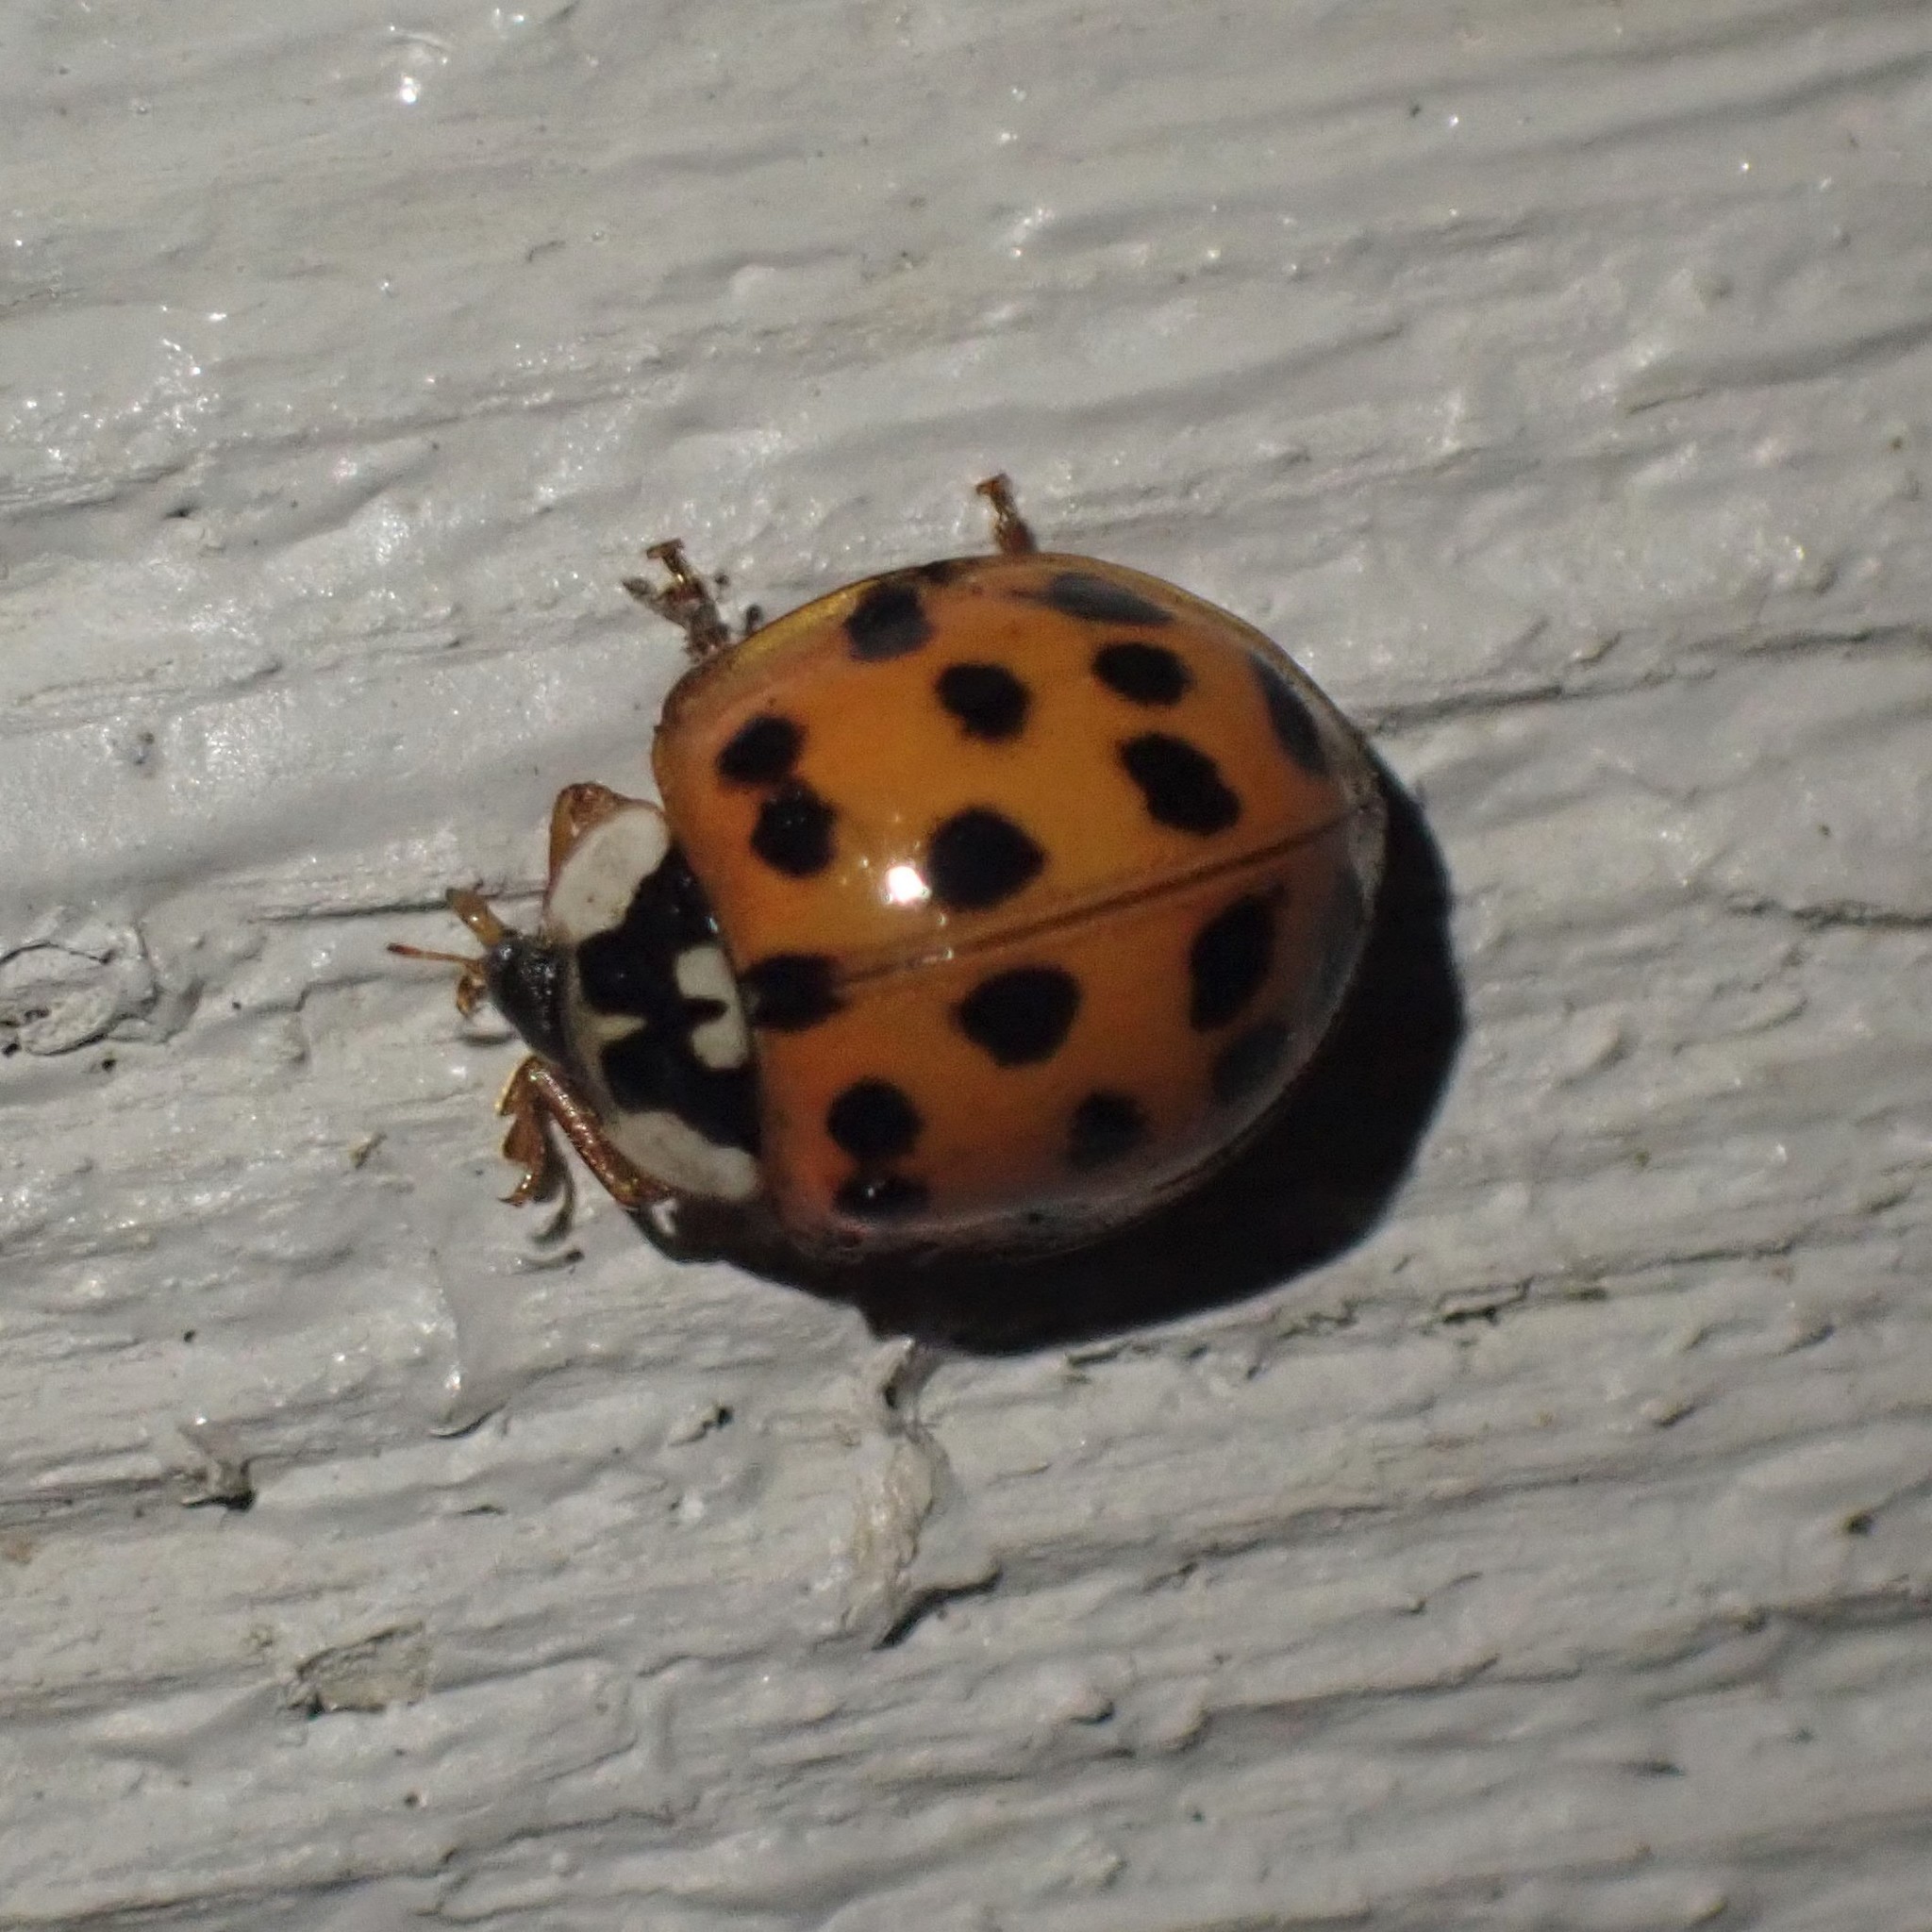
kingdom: Animalia
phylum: Arthropoda
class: Insecta
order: Coleoptera
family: Coccinellidae
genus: Harmonia
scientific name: Harmonia axyridis
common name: Harlequin ladybird
